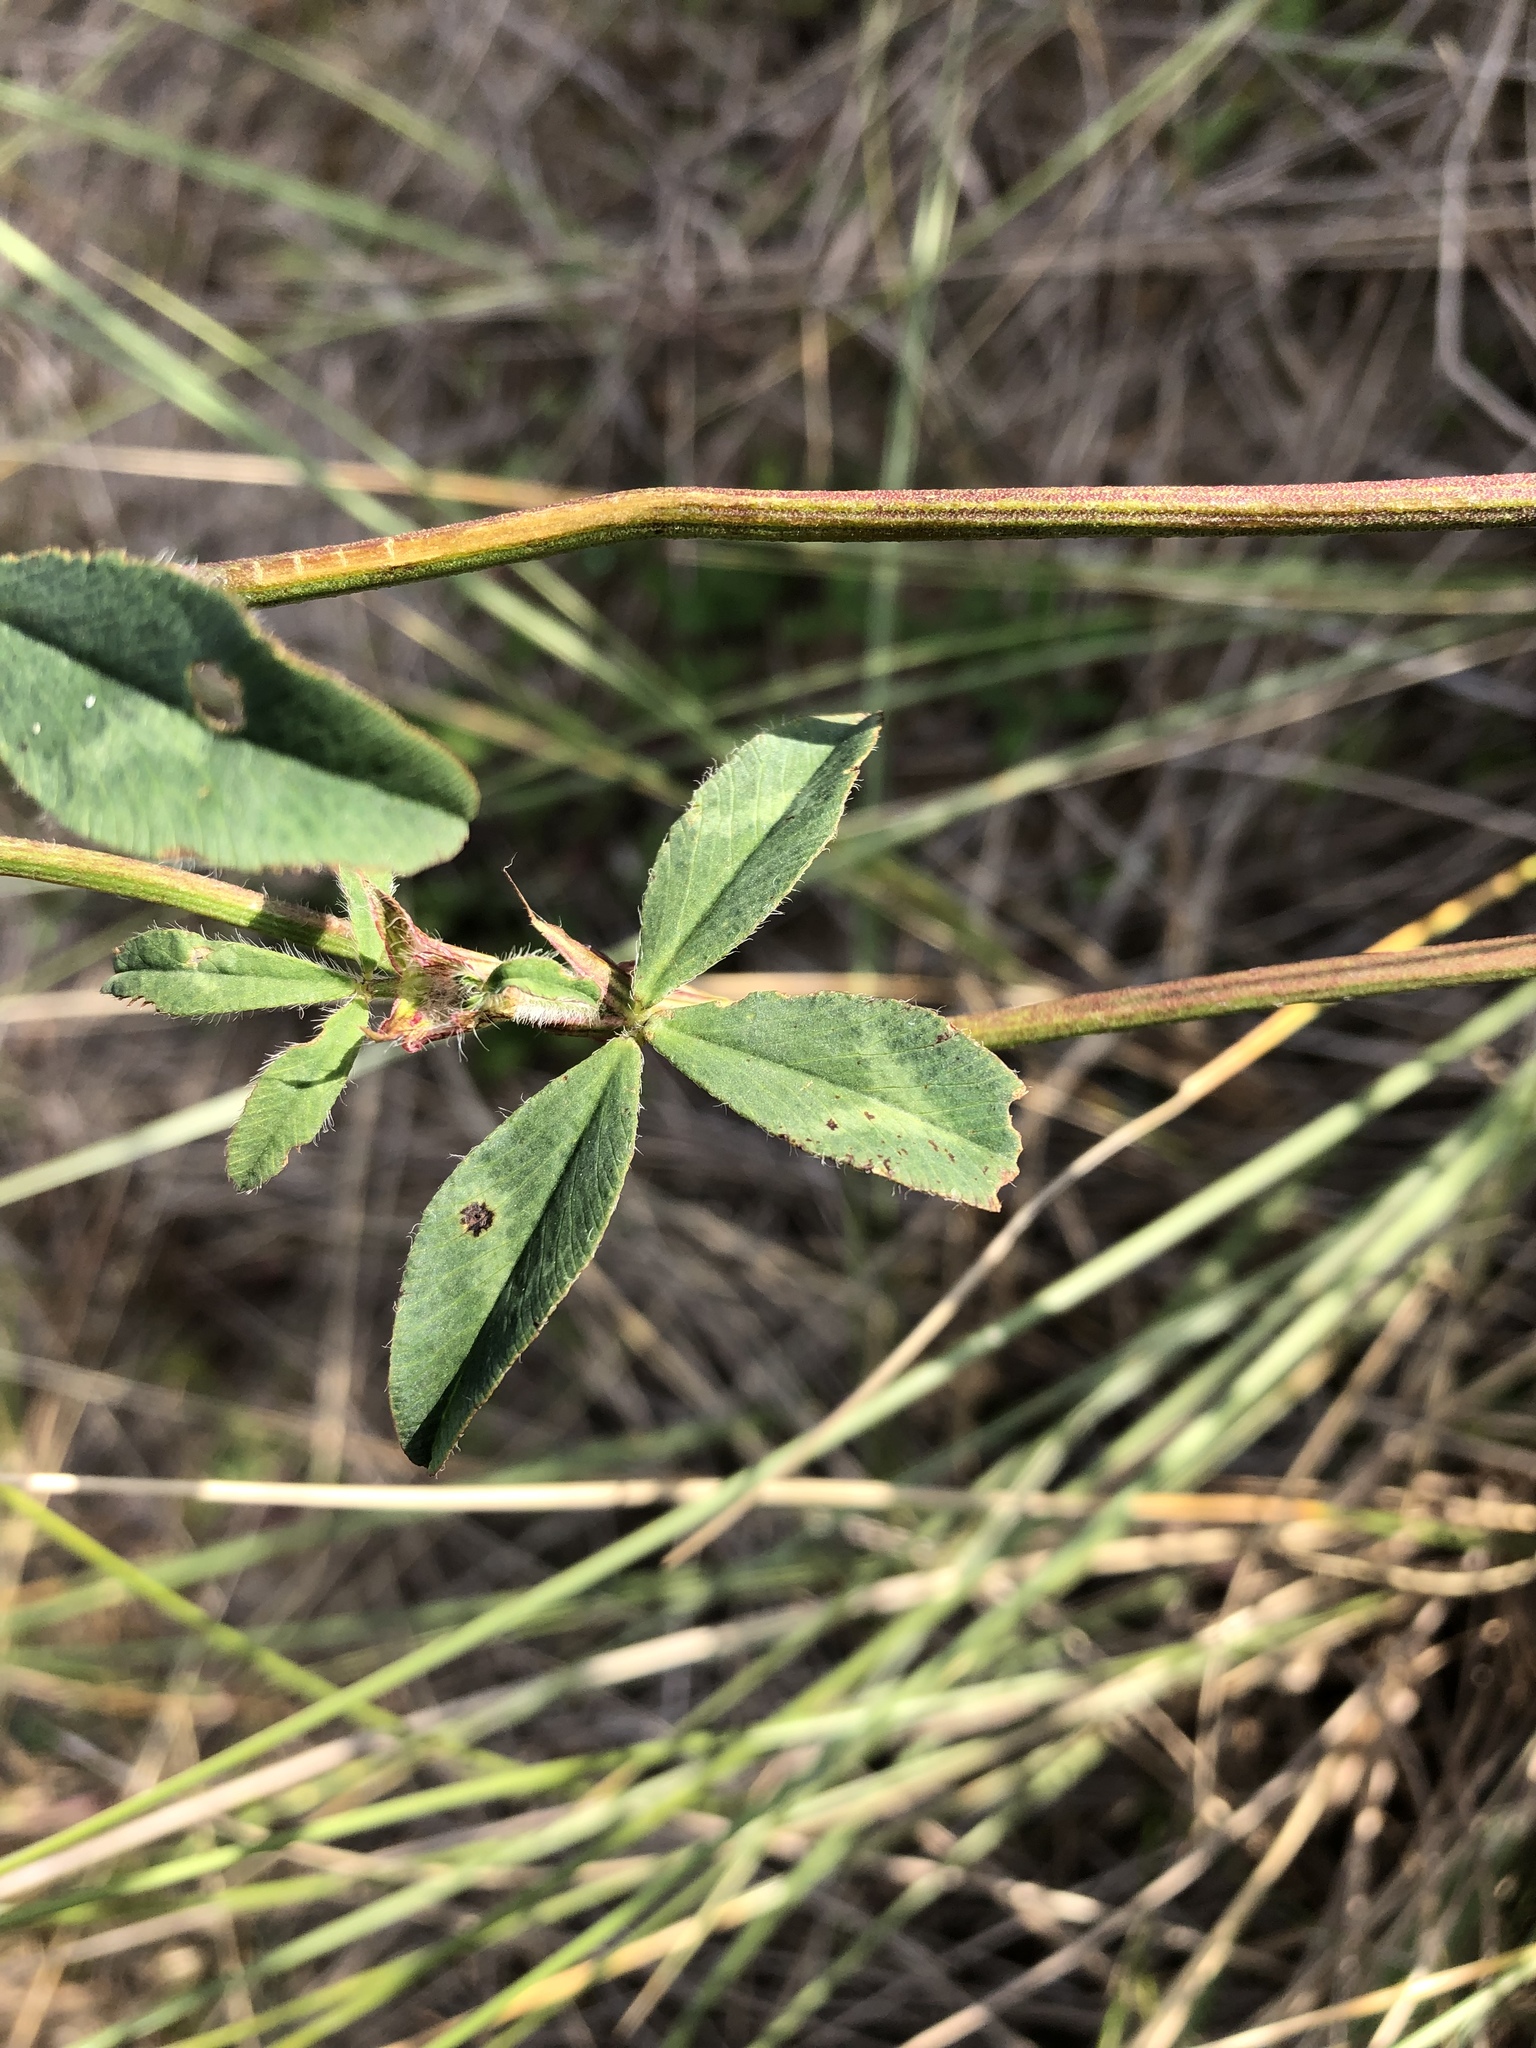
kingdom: Plantae
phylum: Tracheophyta
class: Magnoliopsida
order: Fabales
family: Fabaceae
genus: Trifolium
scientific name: Trifolium pratense
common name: Red clover
